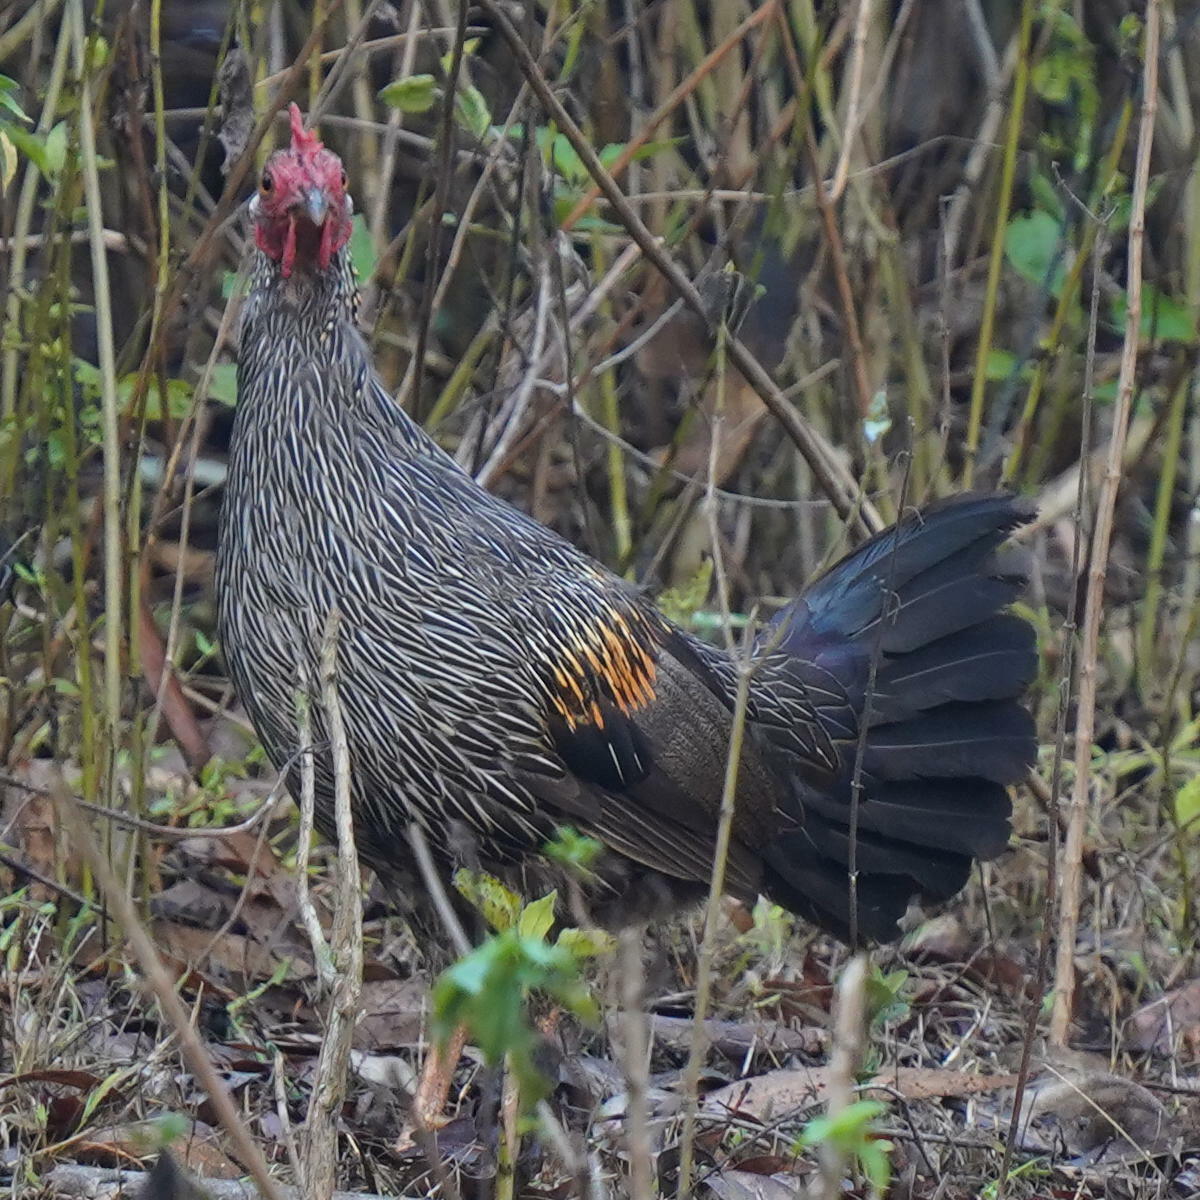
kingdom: Animalia
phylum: Chordata
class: Aves
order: Galliformes
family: Phasianidae
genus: Gallus
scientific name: Gallus sonneratii
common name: Grey junglefowl
